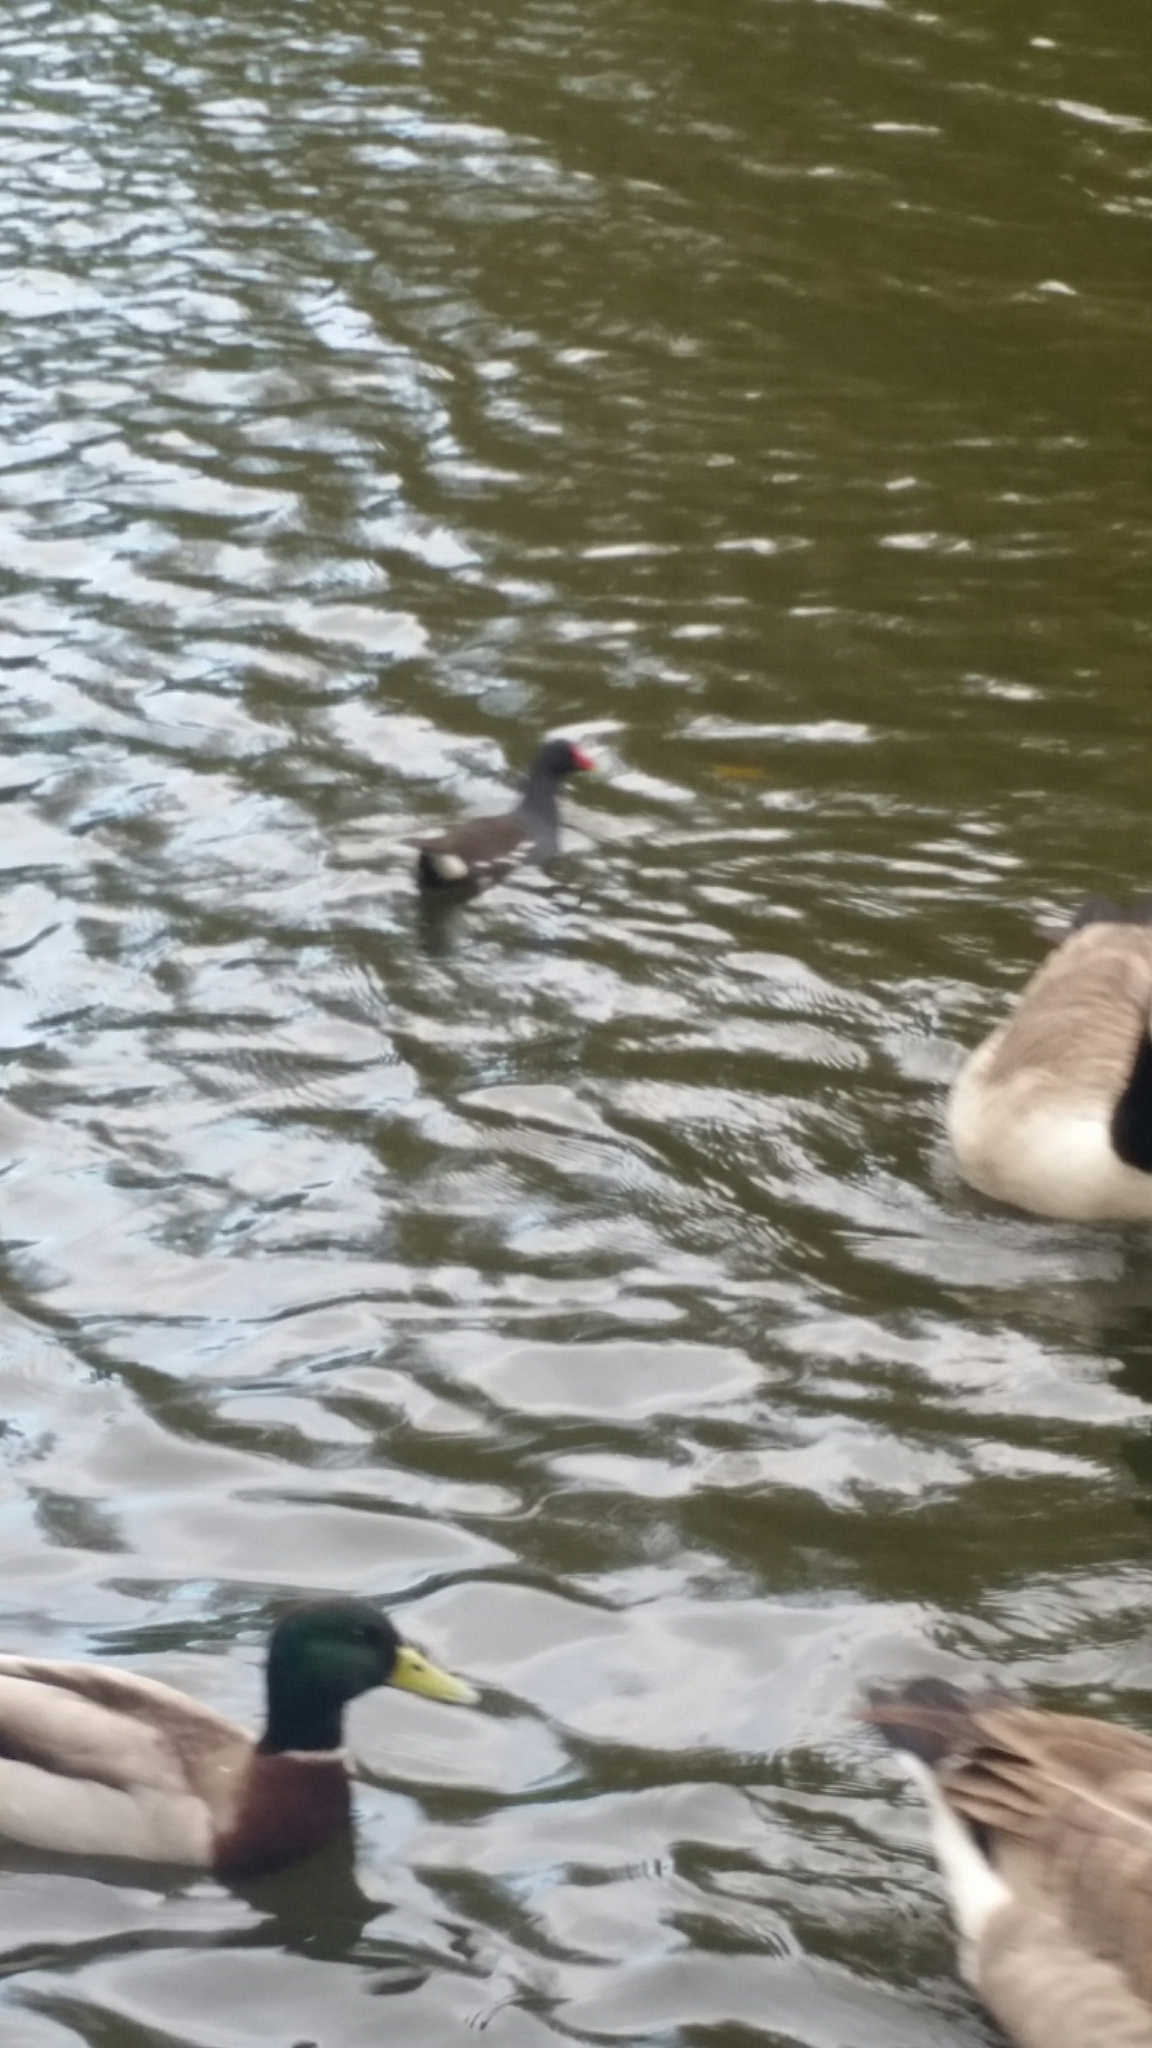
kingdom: Animalia
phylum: Chordata
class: Aves
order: Gruiformes
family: Rallidae
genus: Gallinula
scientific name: Gallinula chloropus
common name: Common moorhen
